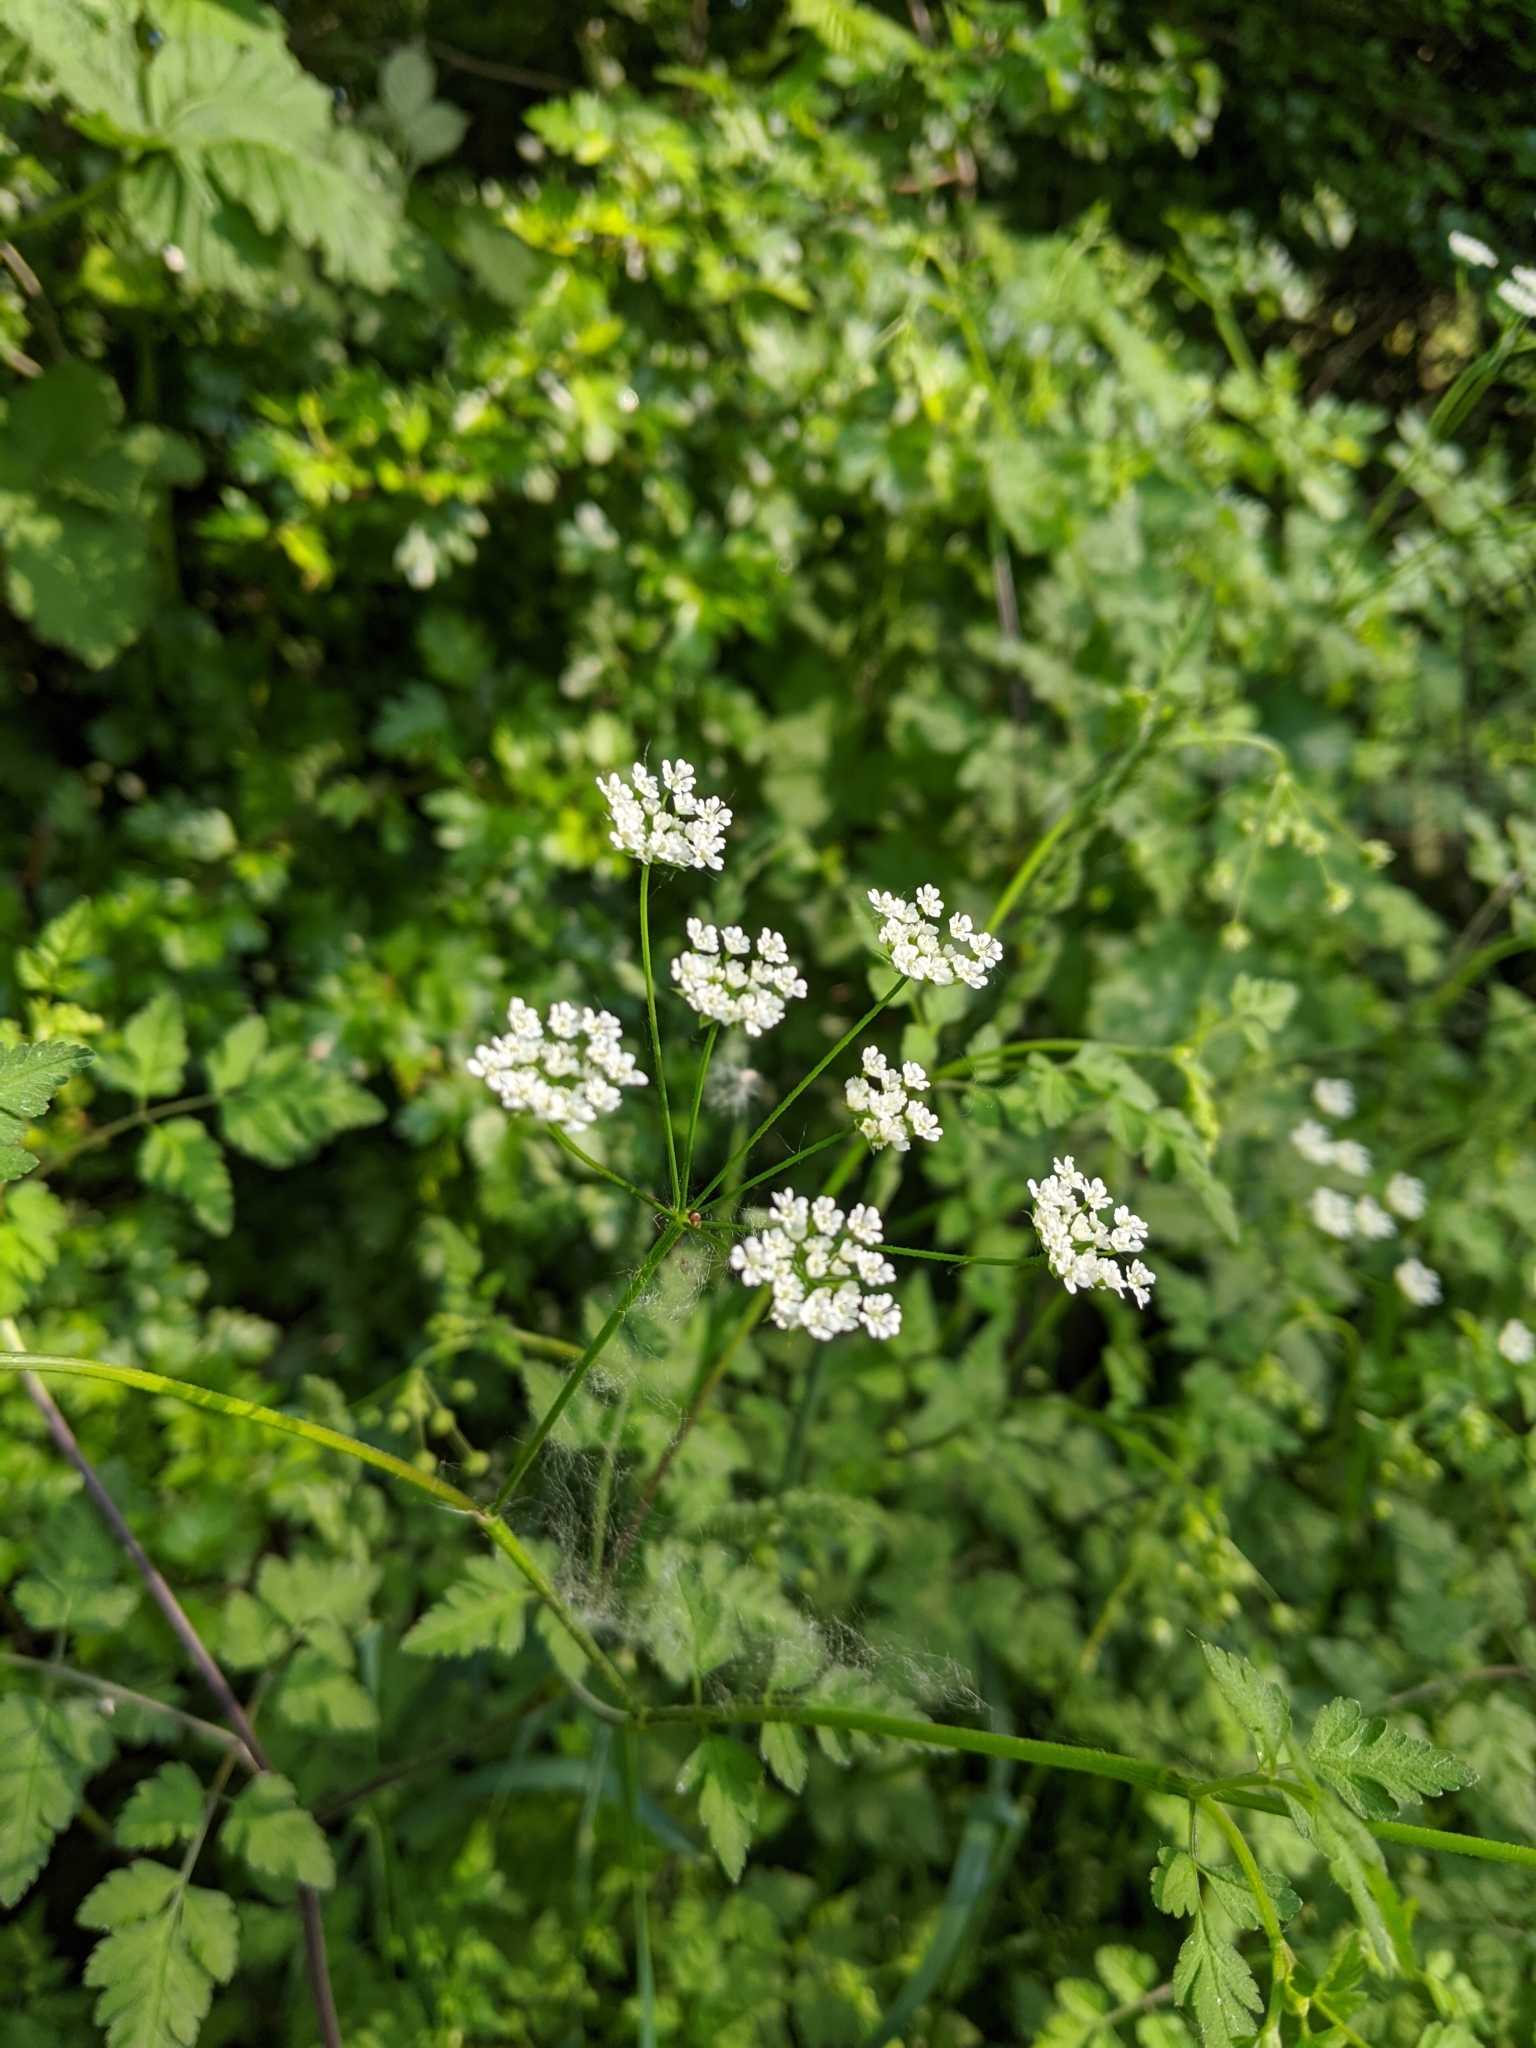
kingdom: Plantae
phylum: Tracheophyta
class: Magnoliopsida
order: Apiales
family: Apiaceae
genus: Chaerophyllum
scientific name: Chaerophyllum temulum
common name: Rough chervil
